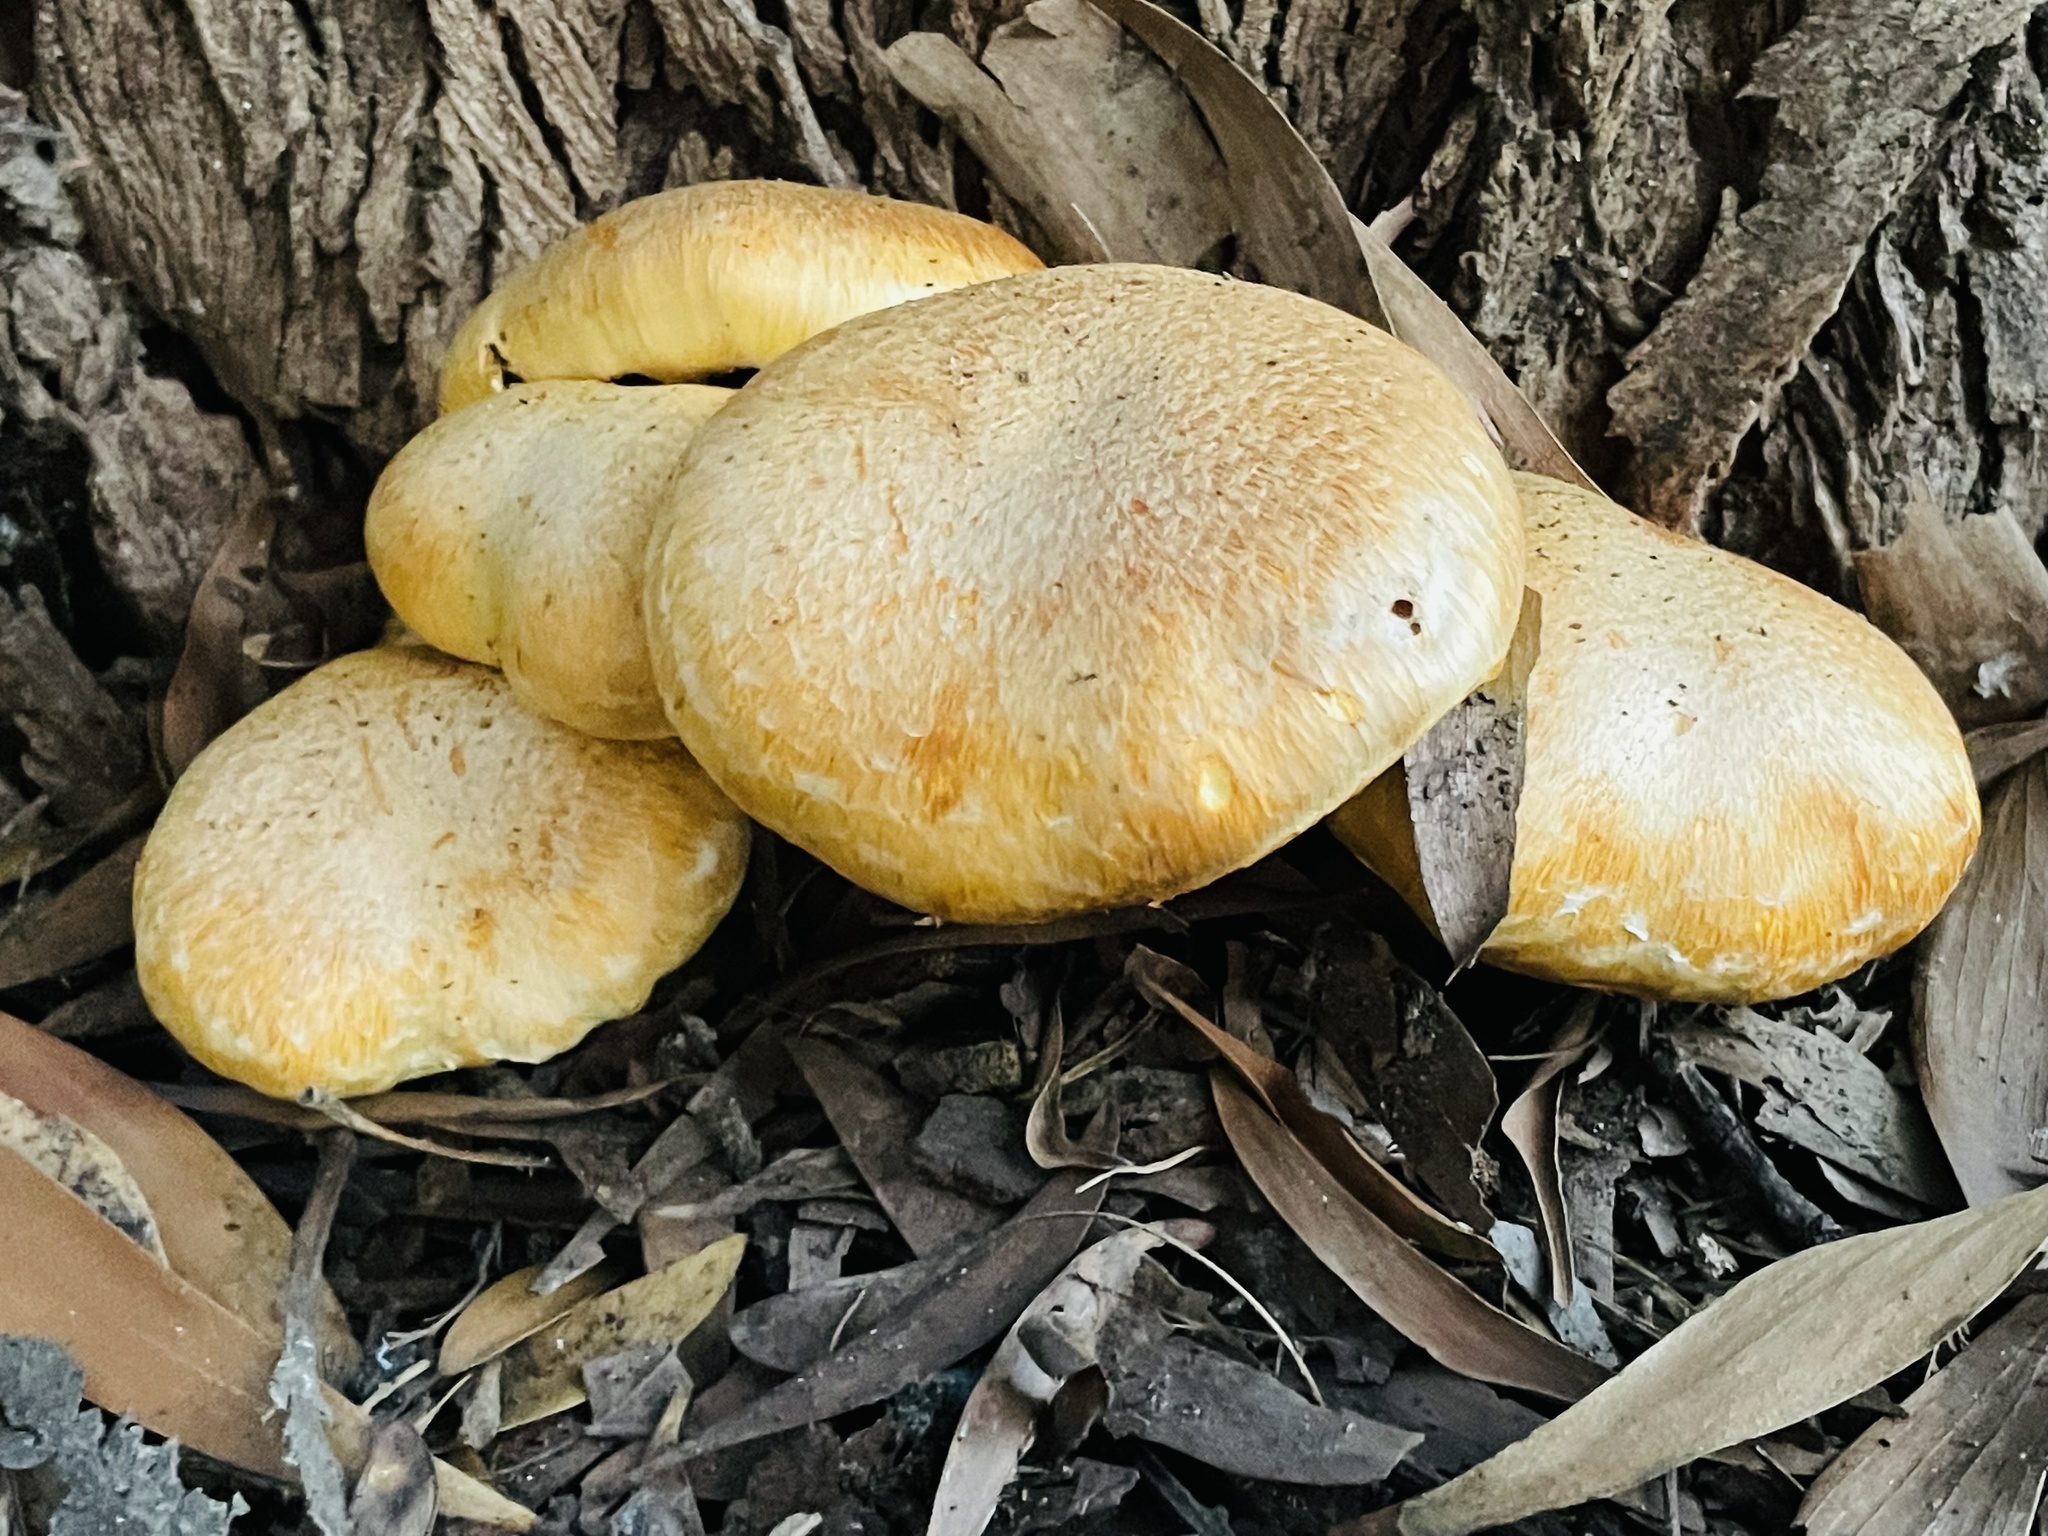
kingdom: Fungi
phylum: Basidiomycota
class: Agaricomycetes
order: Agaricales
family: Hymenogastraceae
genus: Gymnopilus
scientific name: Gymnopilus junonius
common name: Spectacular rustgill
